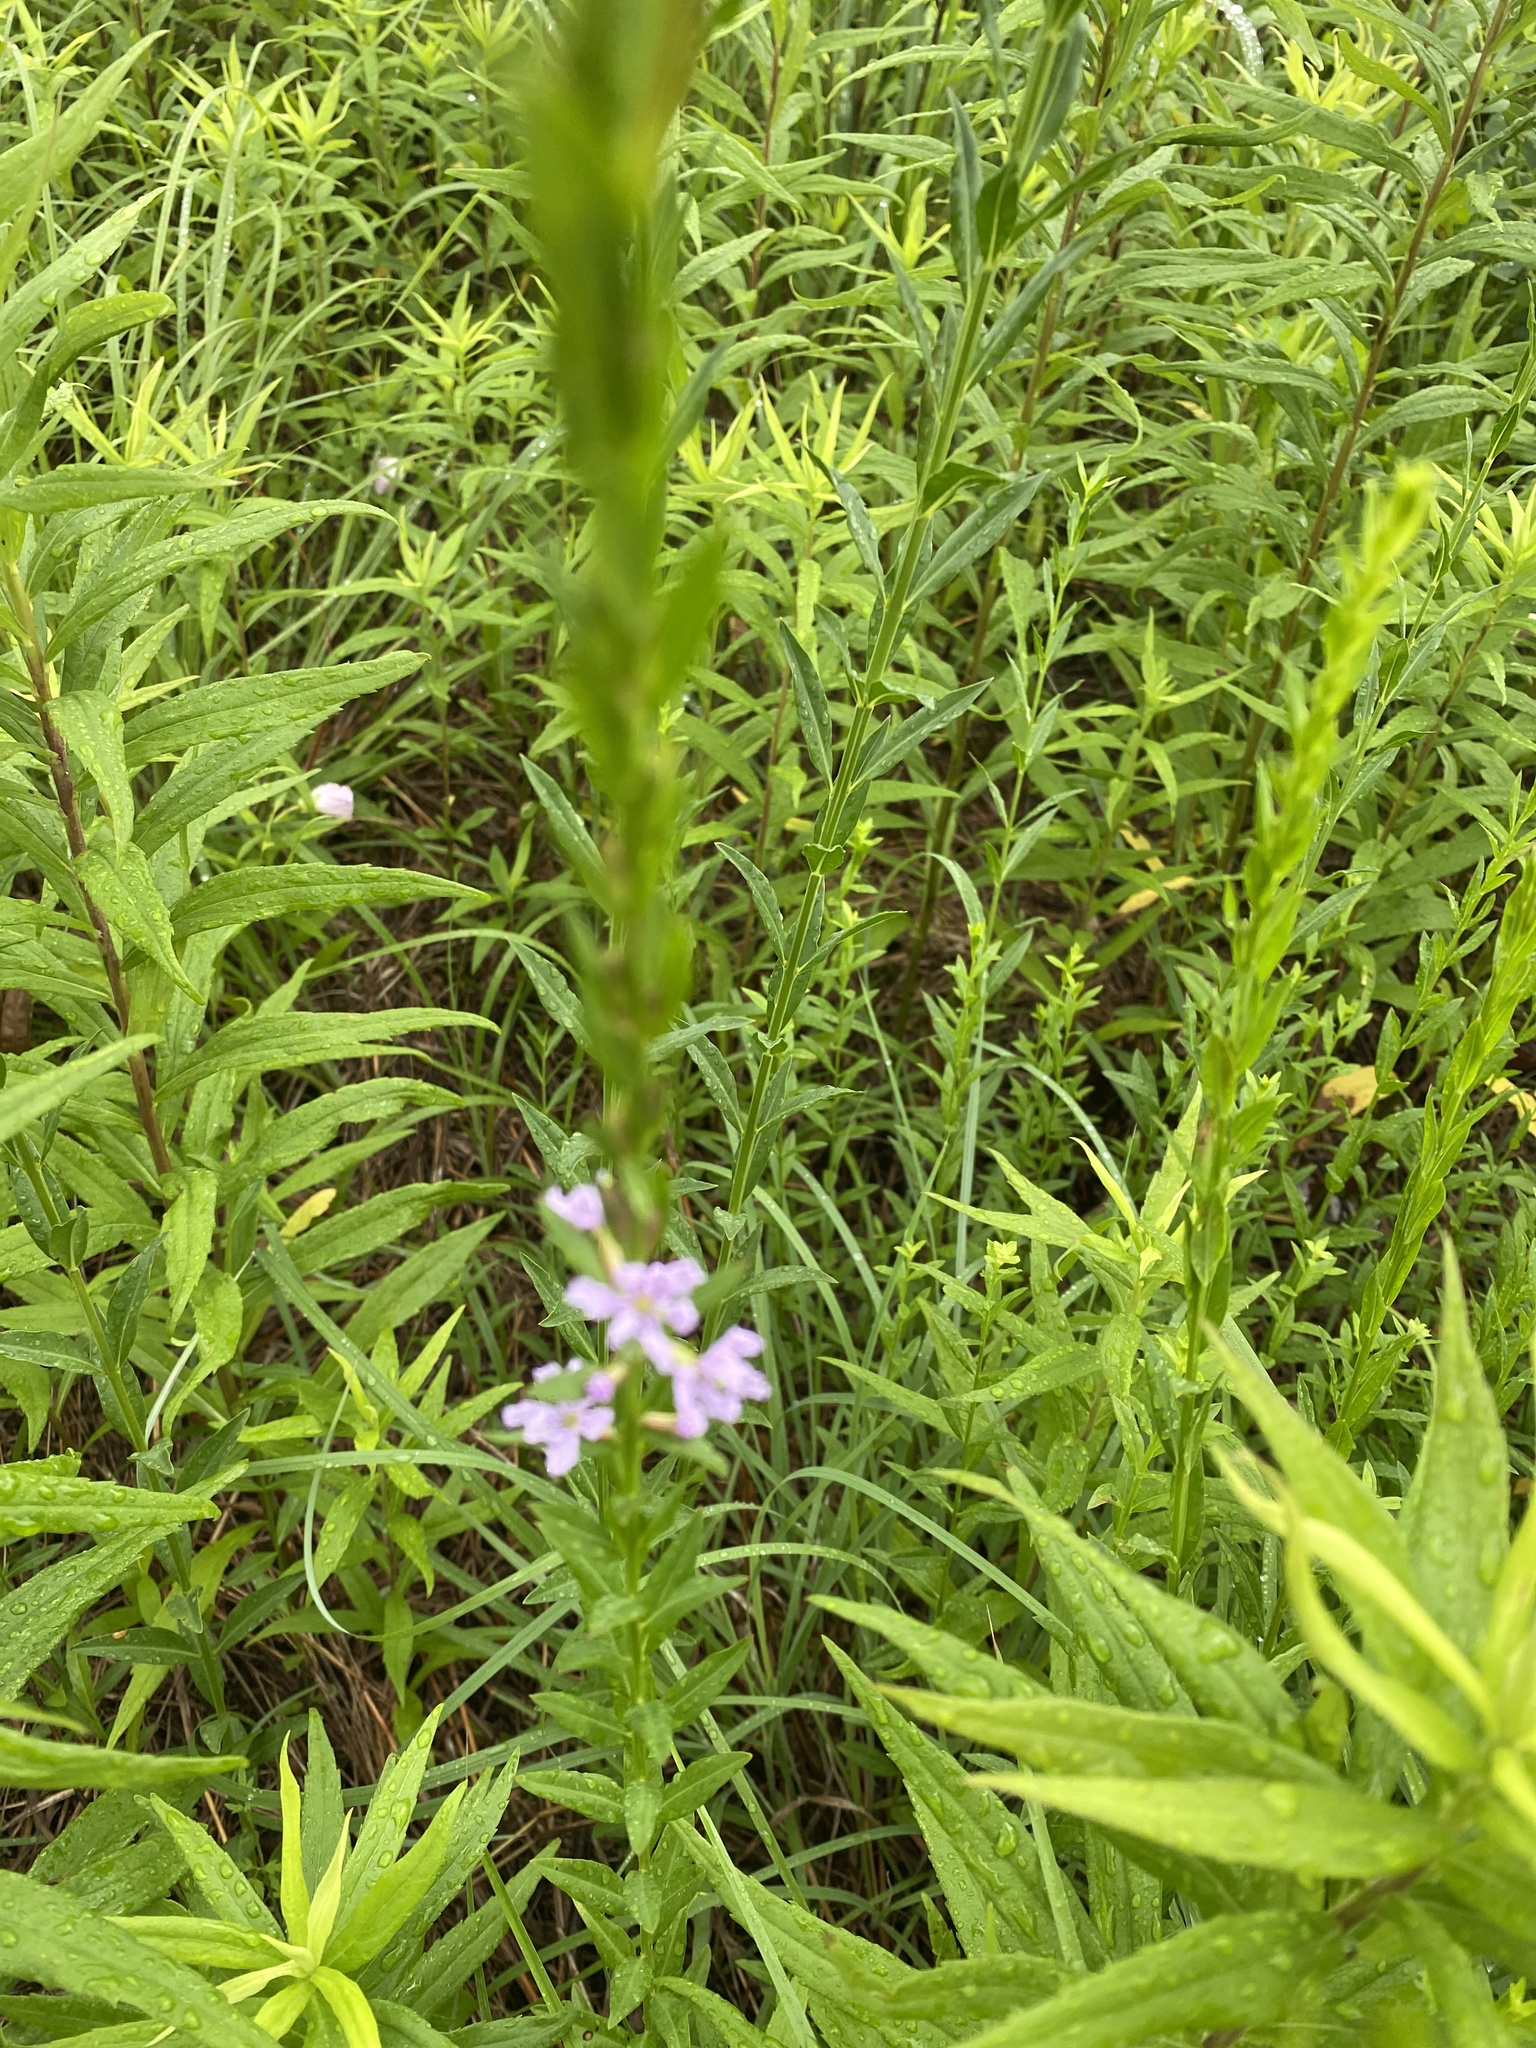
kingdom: Plantae
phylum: Tracheophyta
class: Magnoliopsida
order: Myrtales
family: Lythraceae
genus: Lythrum
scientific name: Lythrum alatum
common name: Winged loosestrife
